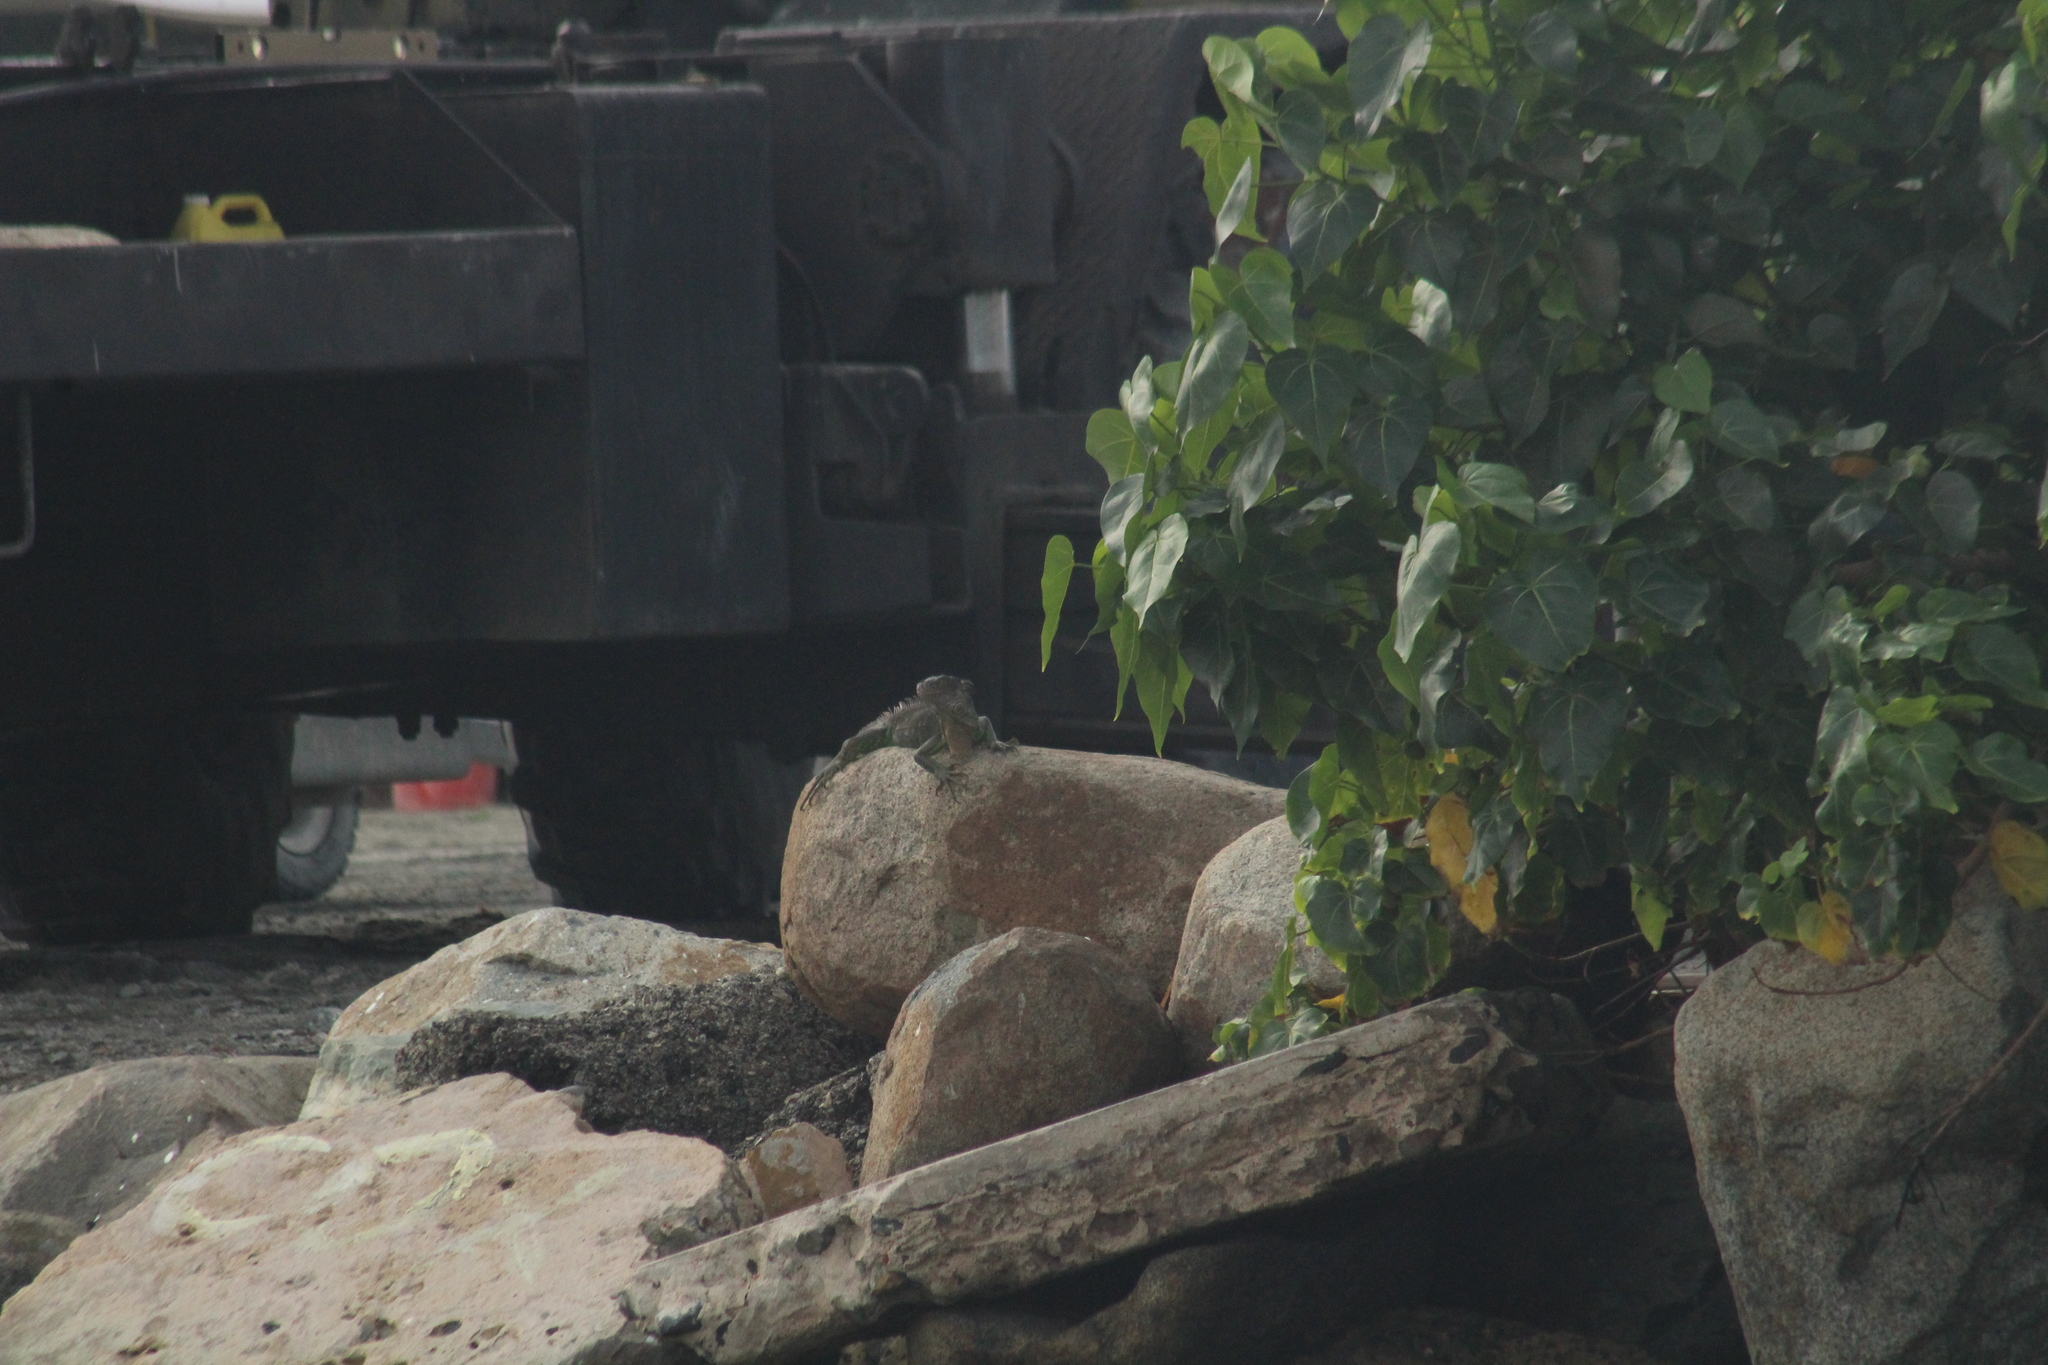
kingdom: Animalia
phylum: Chordata
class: Squamata
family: Iguanidae
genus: Iguana
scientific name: Iguana iguana
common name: Green iguana
